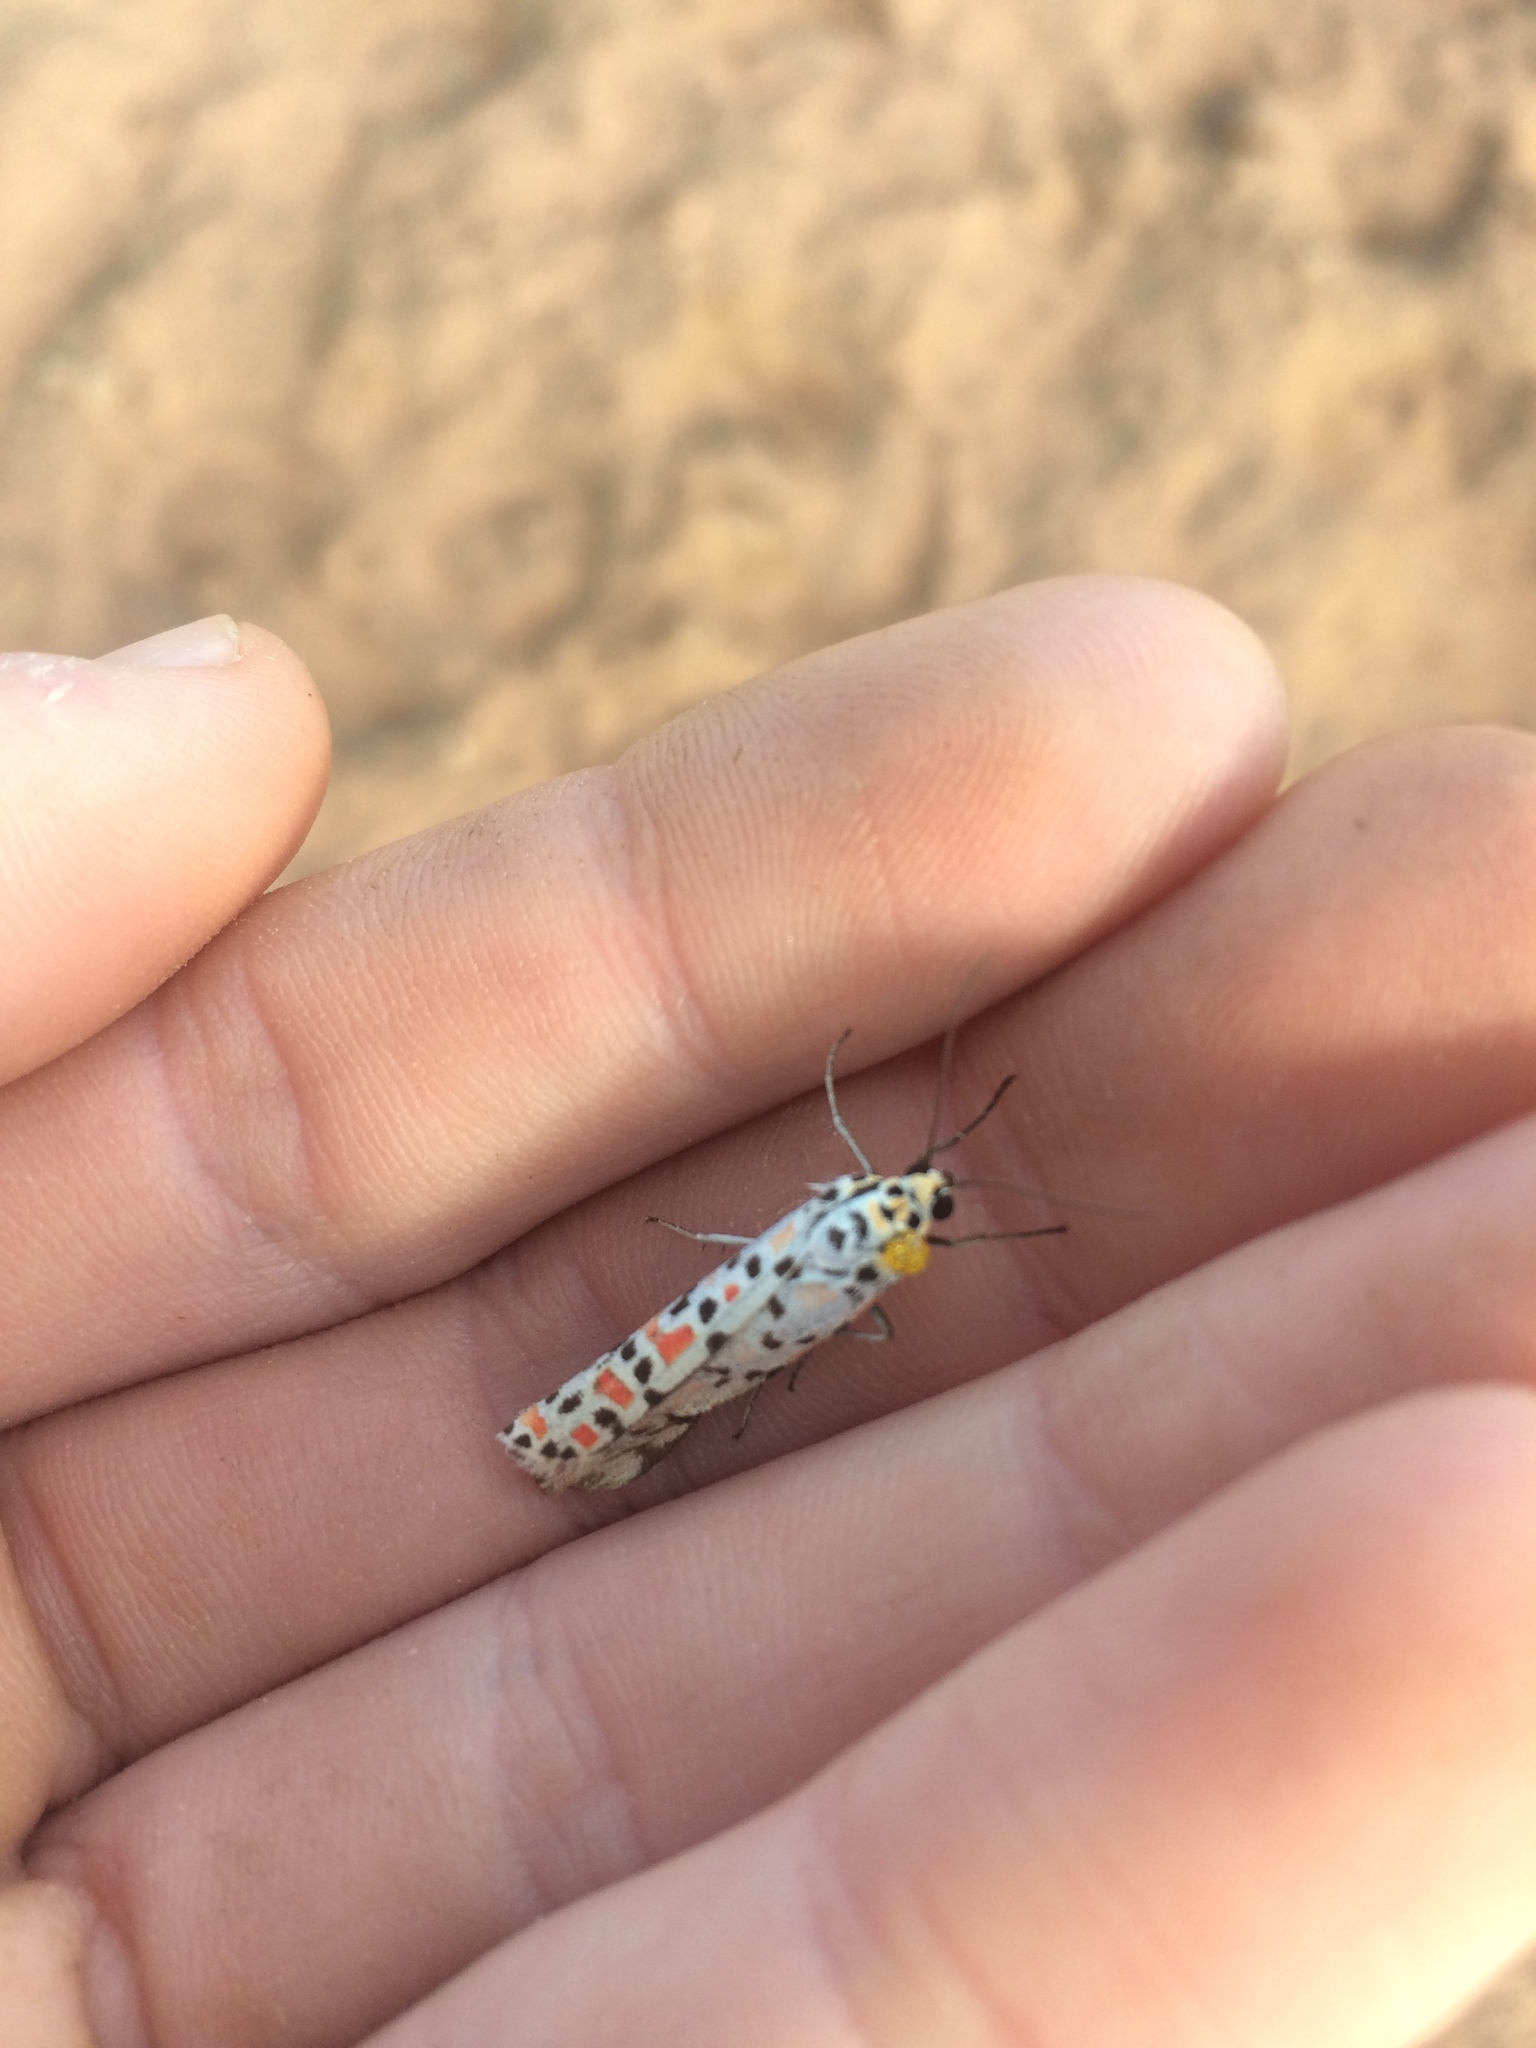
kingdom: Animalia
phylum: Arthropoda
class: Insecta
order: Lepidoptera
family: Erebidae
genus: Utetheisa
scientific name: Utetheisa pulchella
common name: Crimson speckled
